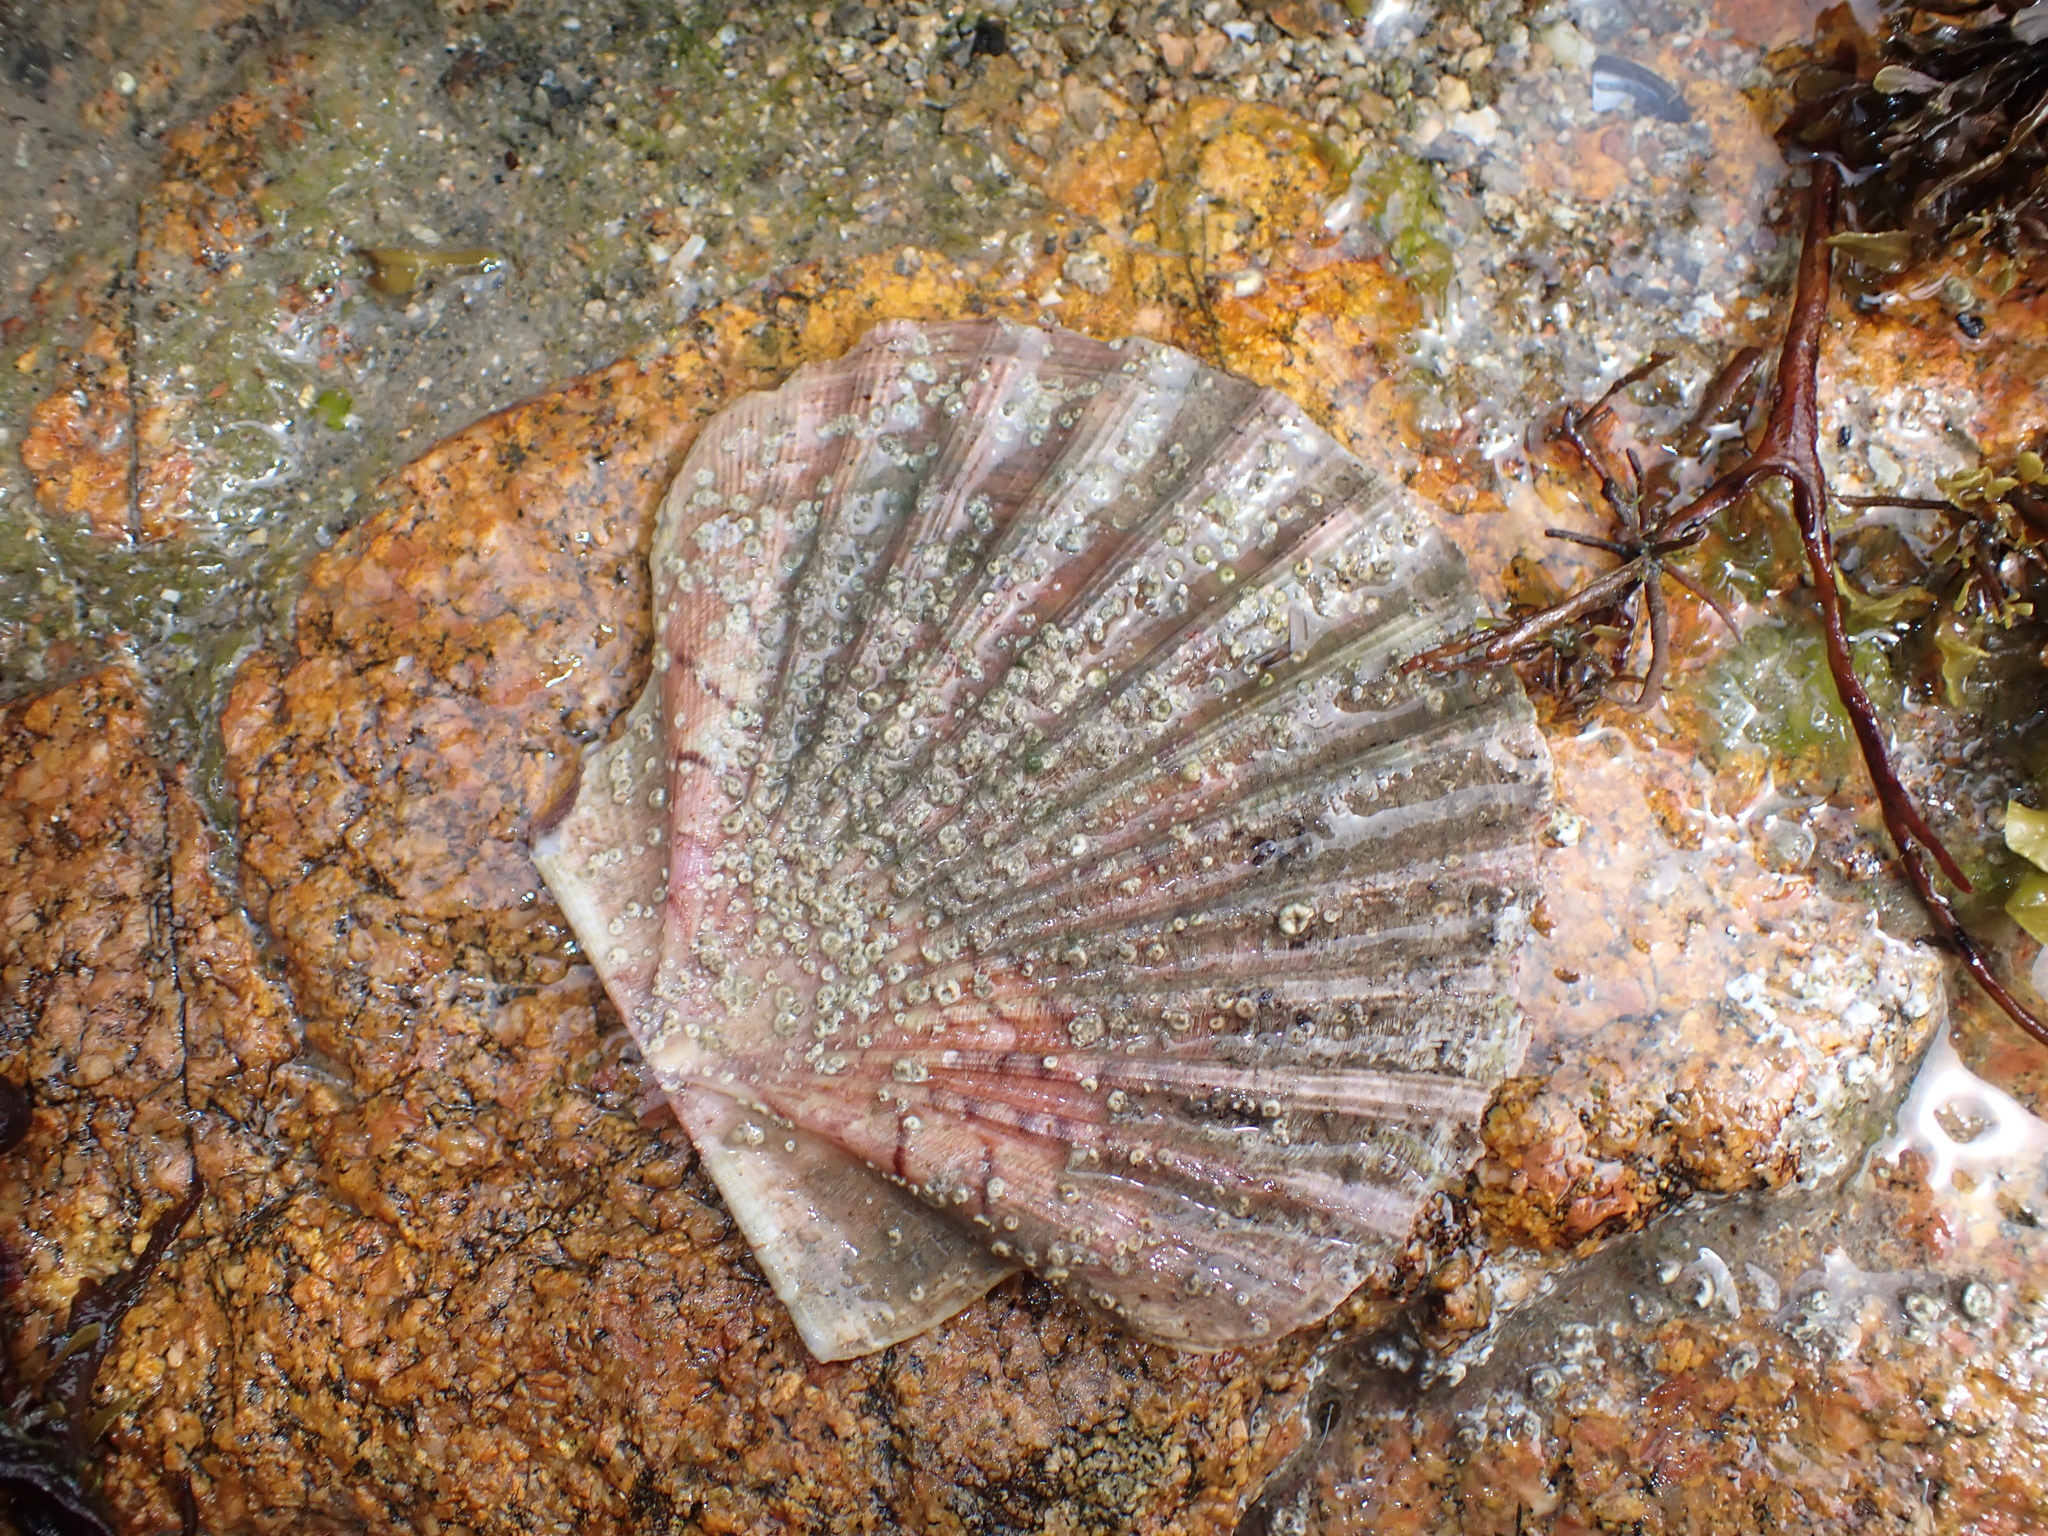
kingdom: Animalia
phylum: Mollusca
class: Bivalvia
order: Pectinida
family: Pectinidae
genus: Pecten
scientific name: Pecten maximus
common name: Great scallop
